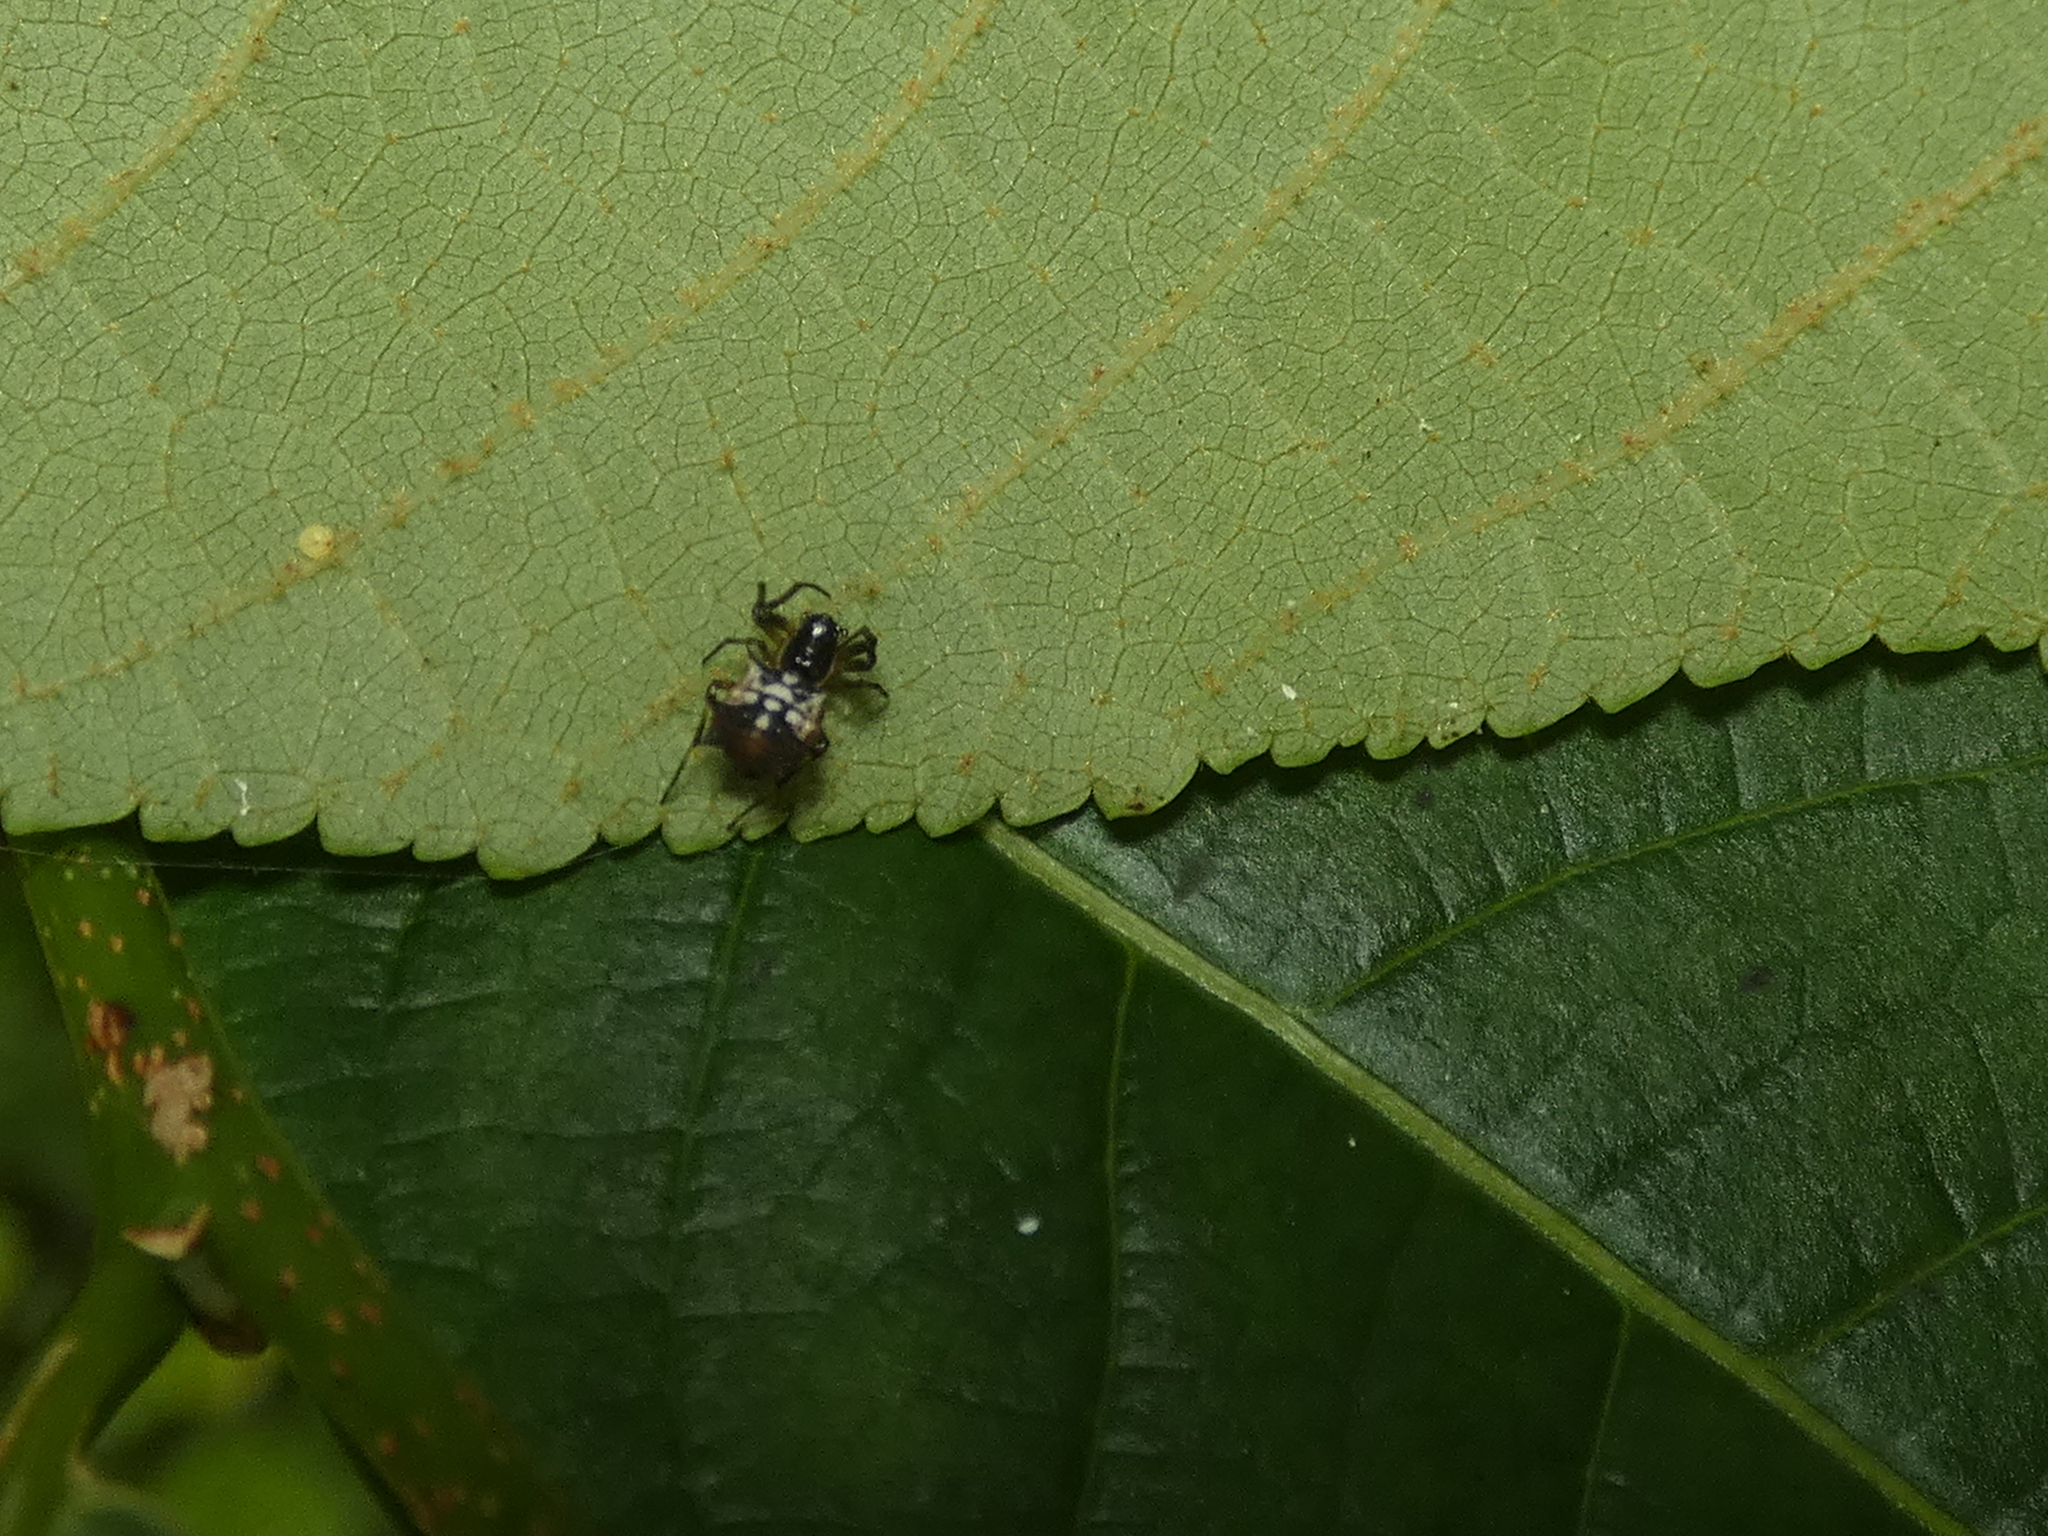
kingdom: Animalia
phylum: Arthropoda
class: Arachnida
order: Araneae
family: Araneidae
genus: Micrathena
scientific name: Micrathena picta
